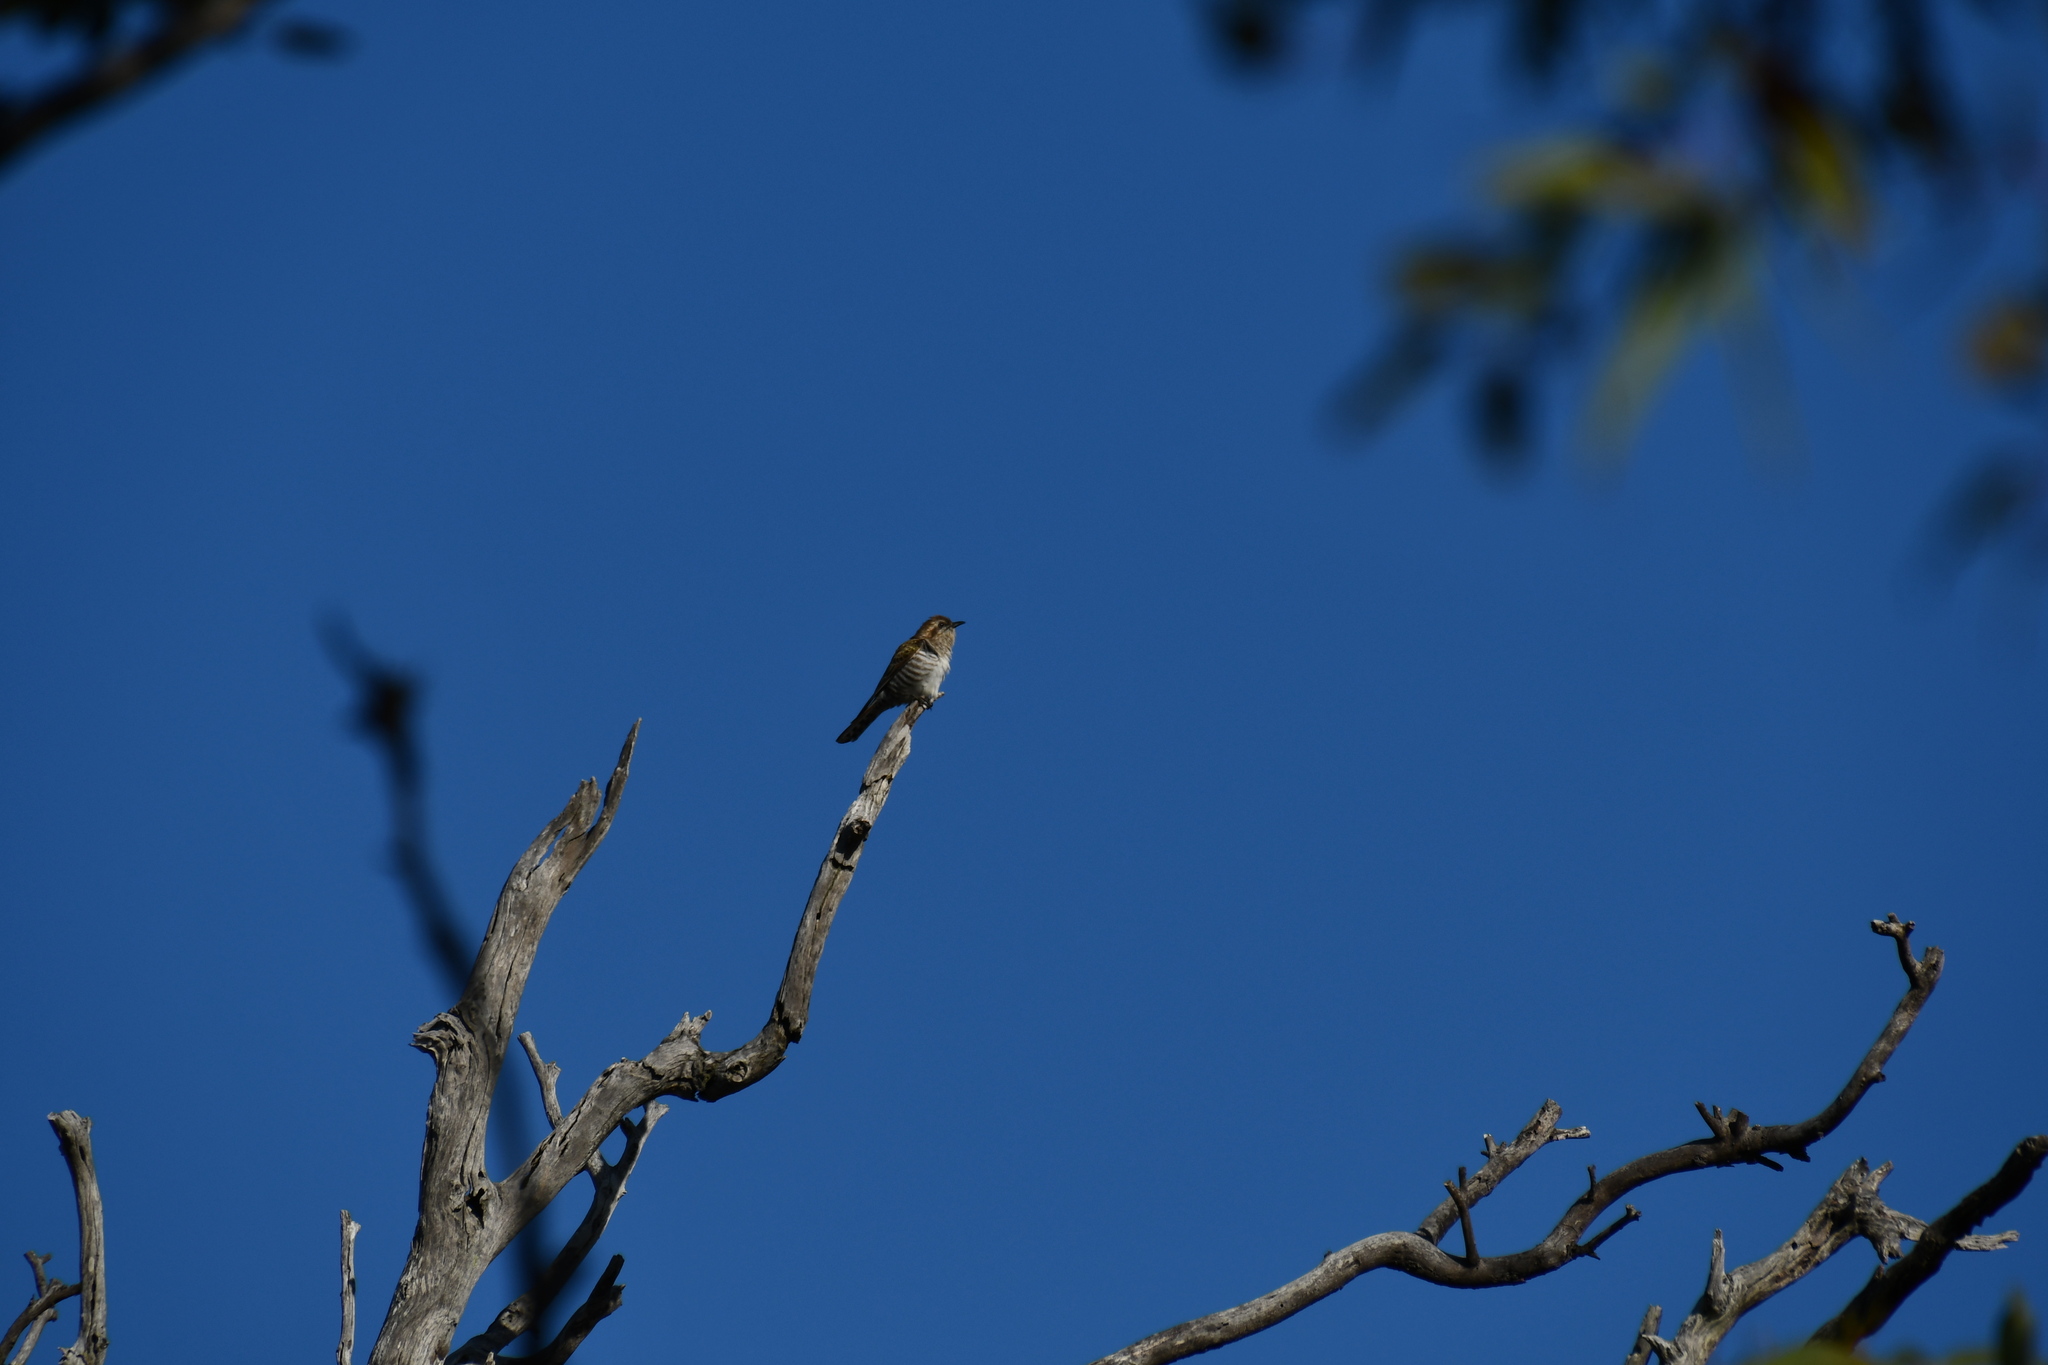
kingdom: Animalia
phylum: Chordata
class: Aves
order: Cuculiformes
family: Cuculidae
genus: Chrysococcyx
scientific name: Chrysococcyx basalis
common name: Horsfield's bronze cuckoo
